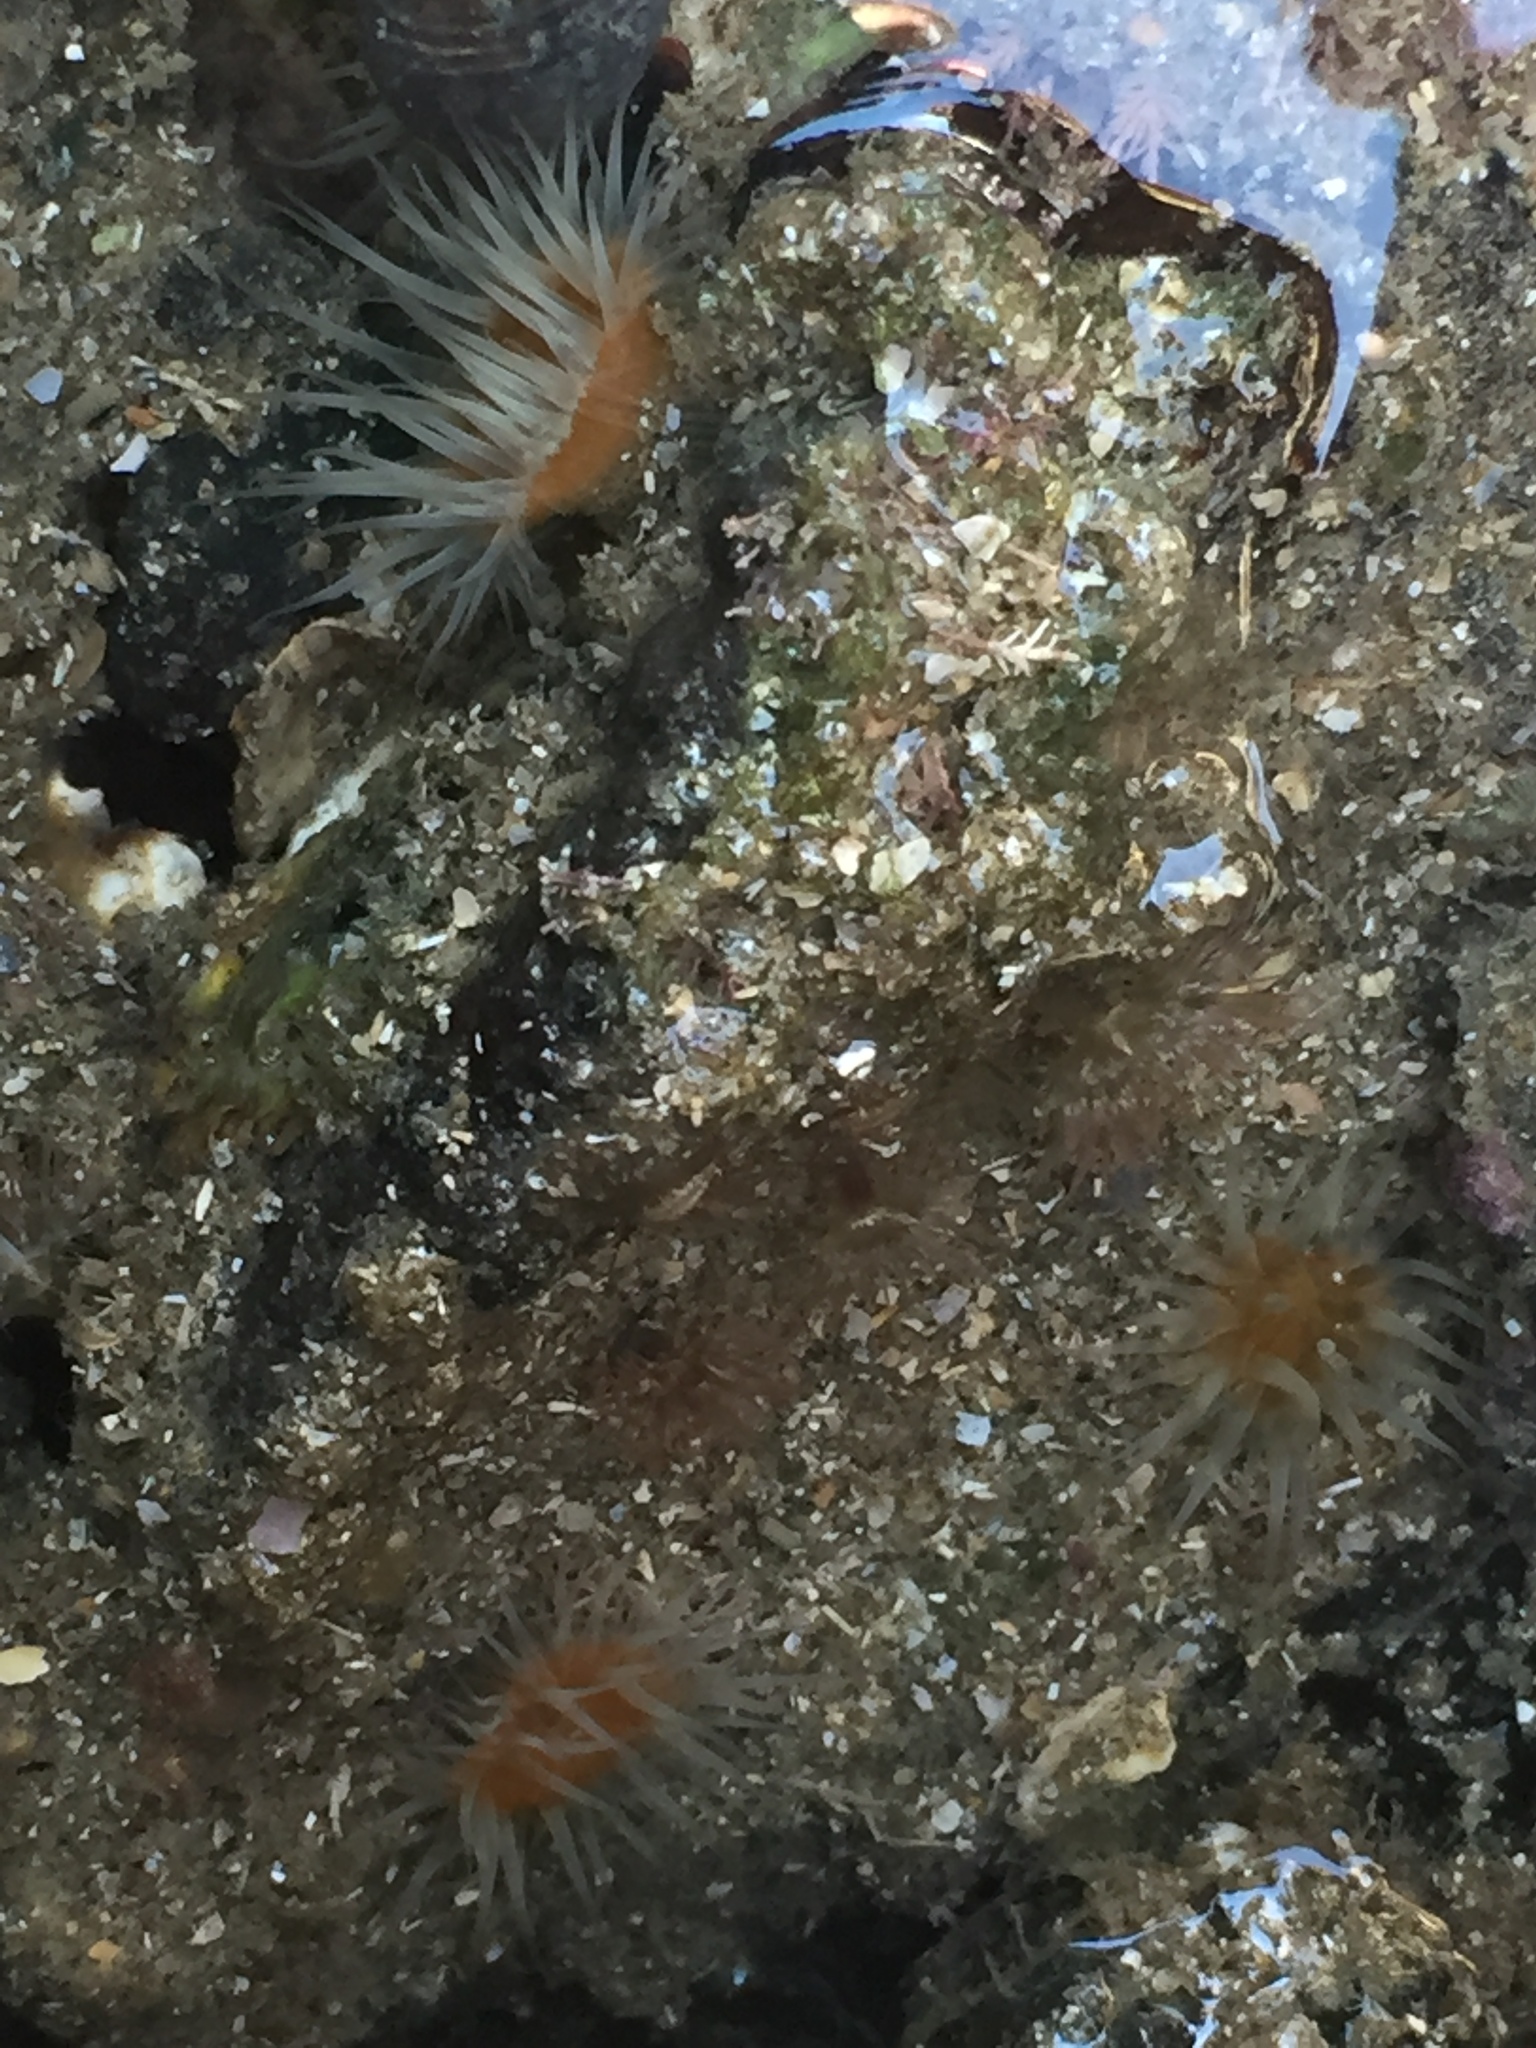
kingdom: Animalia
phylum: Cnidaria
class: Anthozoa
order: Actiniaria
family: Sagartiidae
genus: Anthothoe
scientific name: Anthothoe albocincta
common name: Orange striped anemone
